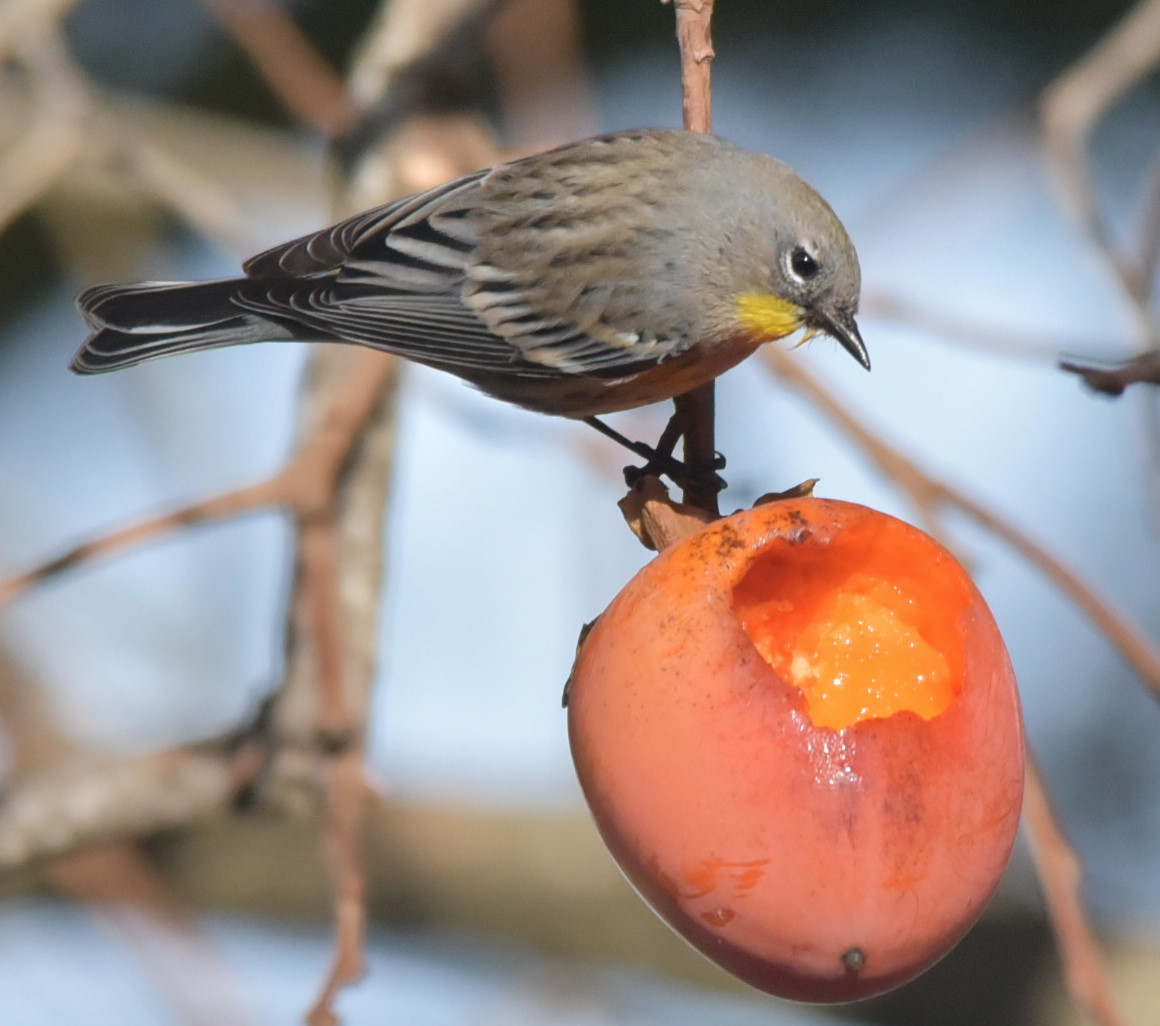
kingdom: Animalia
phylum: Chordata
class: Aves
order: Passeriformes
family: Parulidae
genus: Setophaga
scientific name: Setophaga coronata
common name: Myrtle warbler
